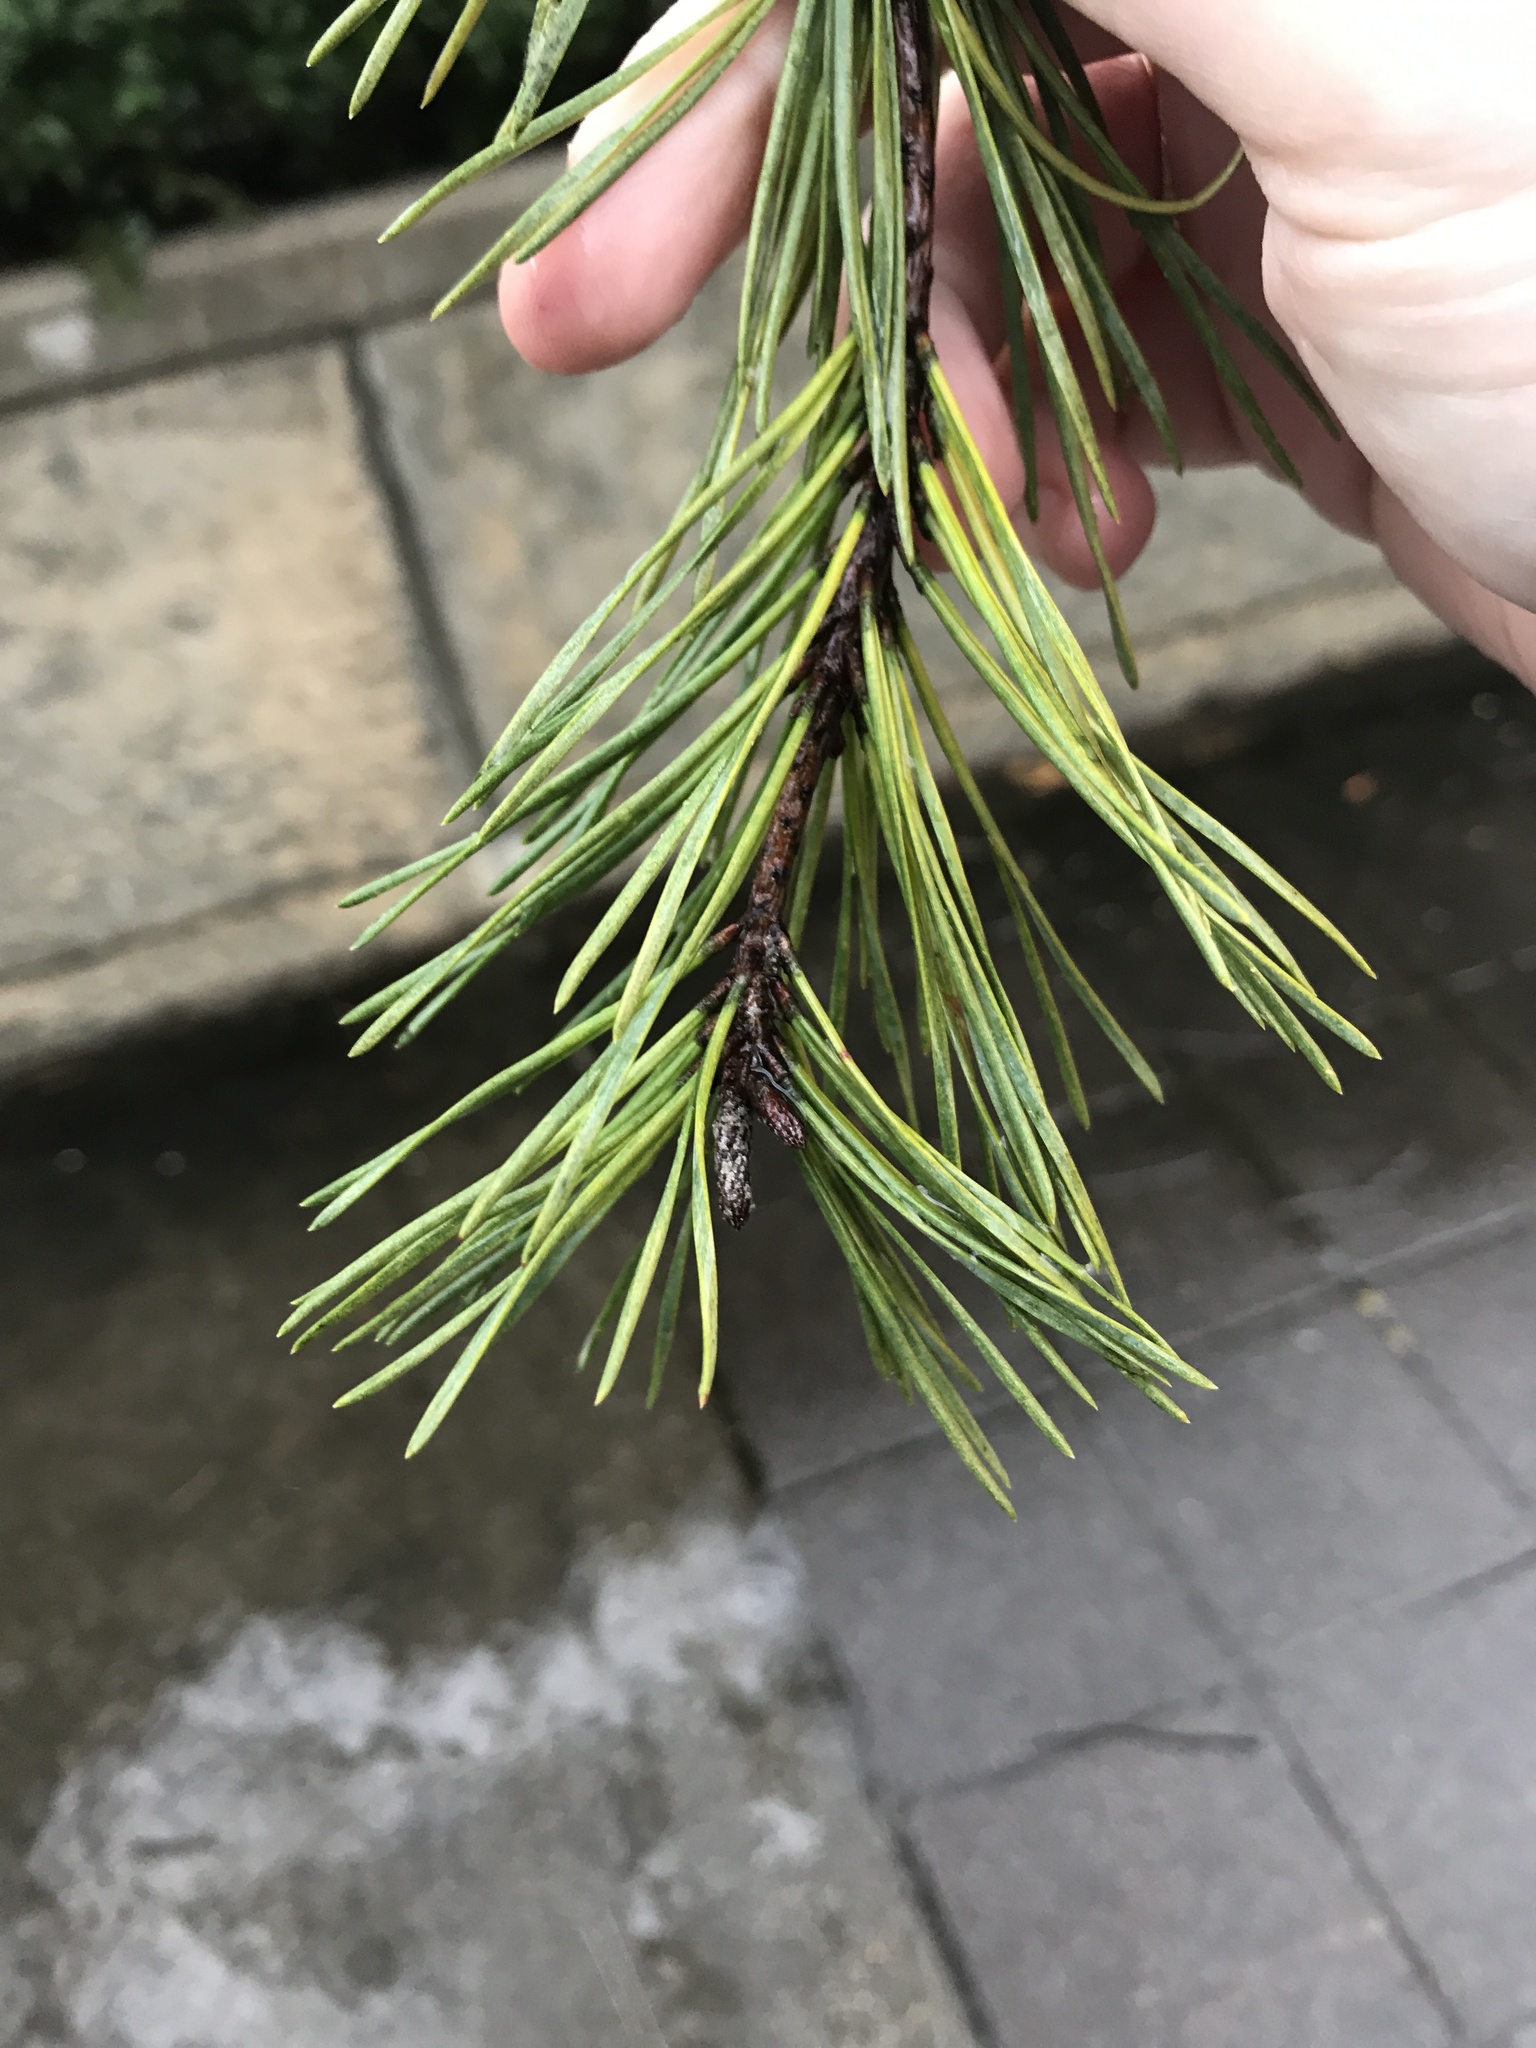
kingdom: Plantae
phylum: Tracheophyta
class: Pinopsida
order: Pinales
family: Pinaceae
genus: Pinus
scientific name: Pinus virginiana
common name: Scrub pine
